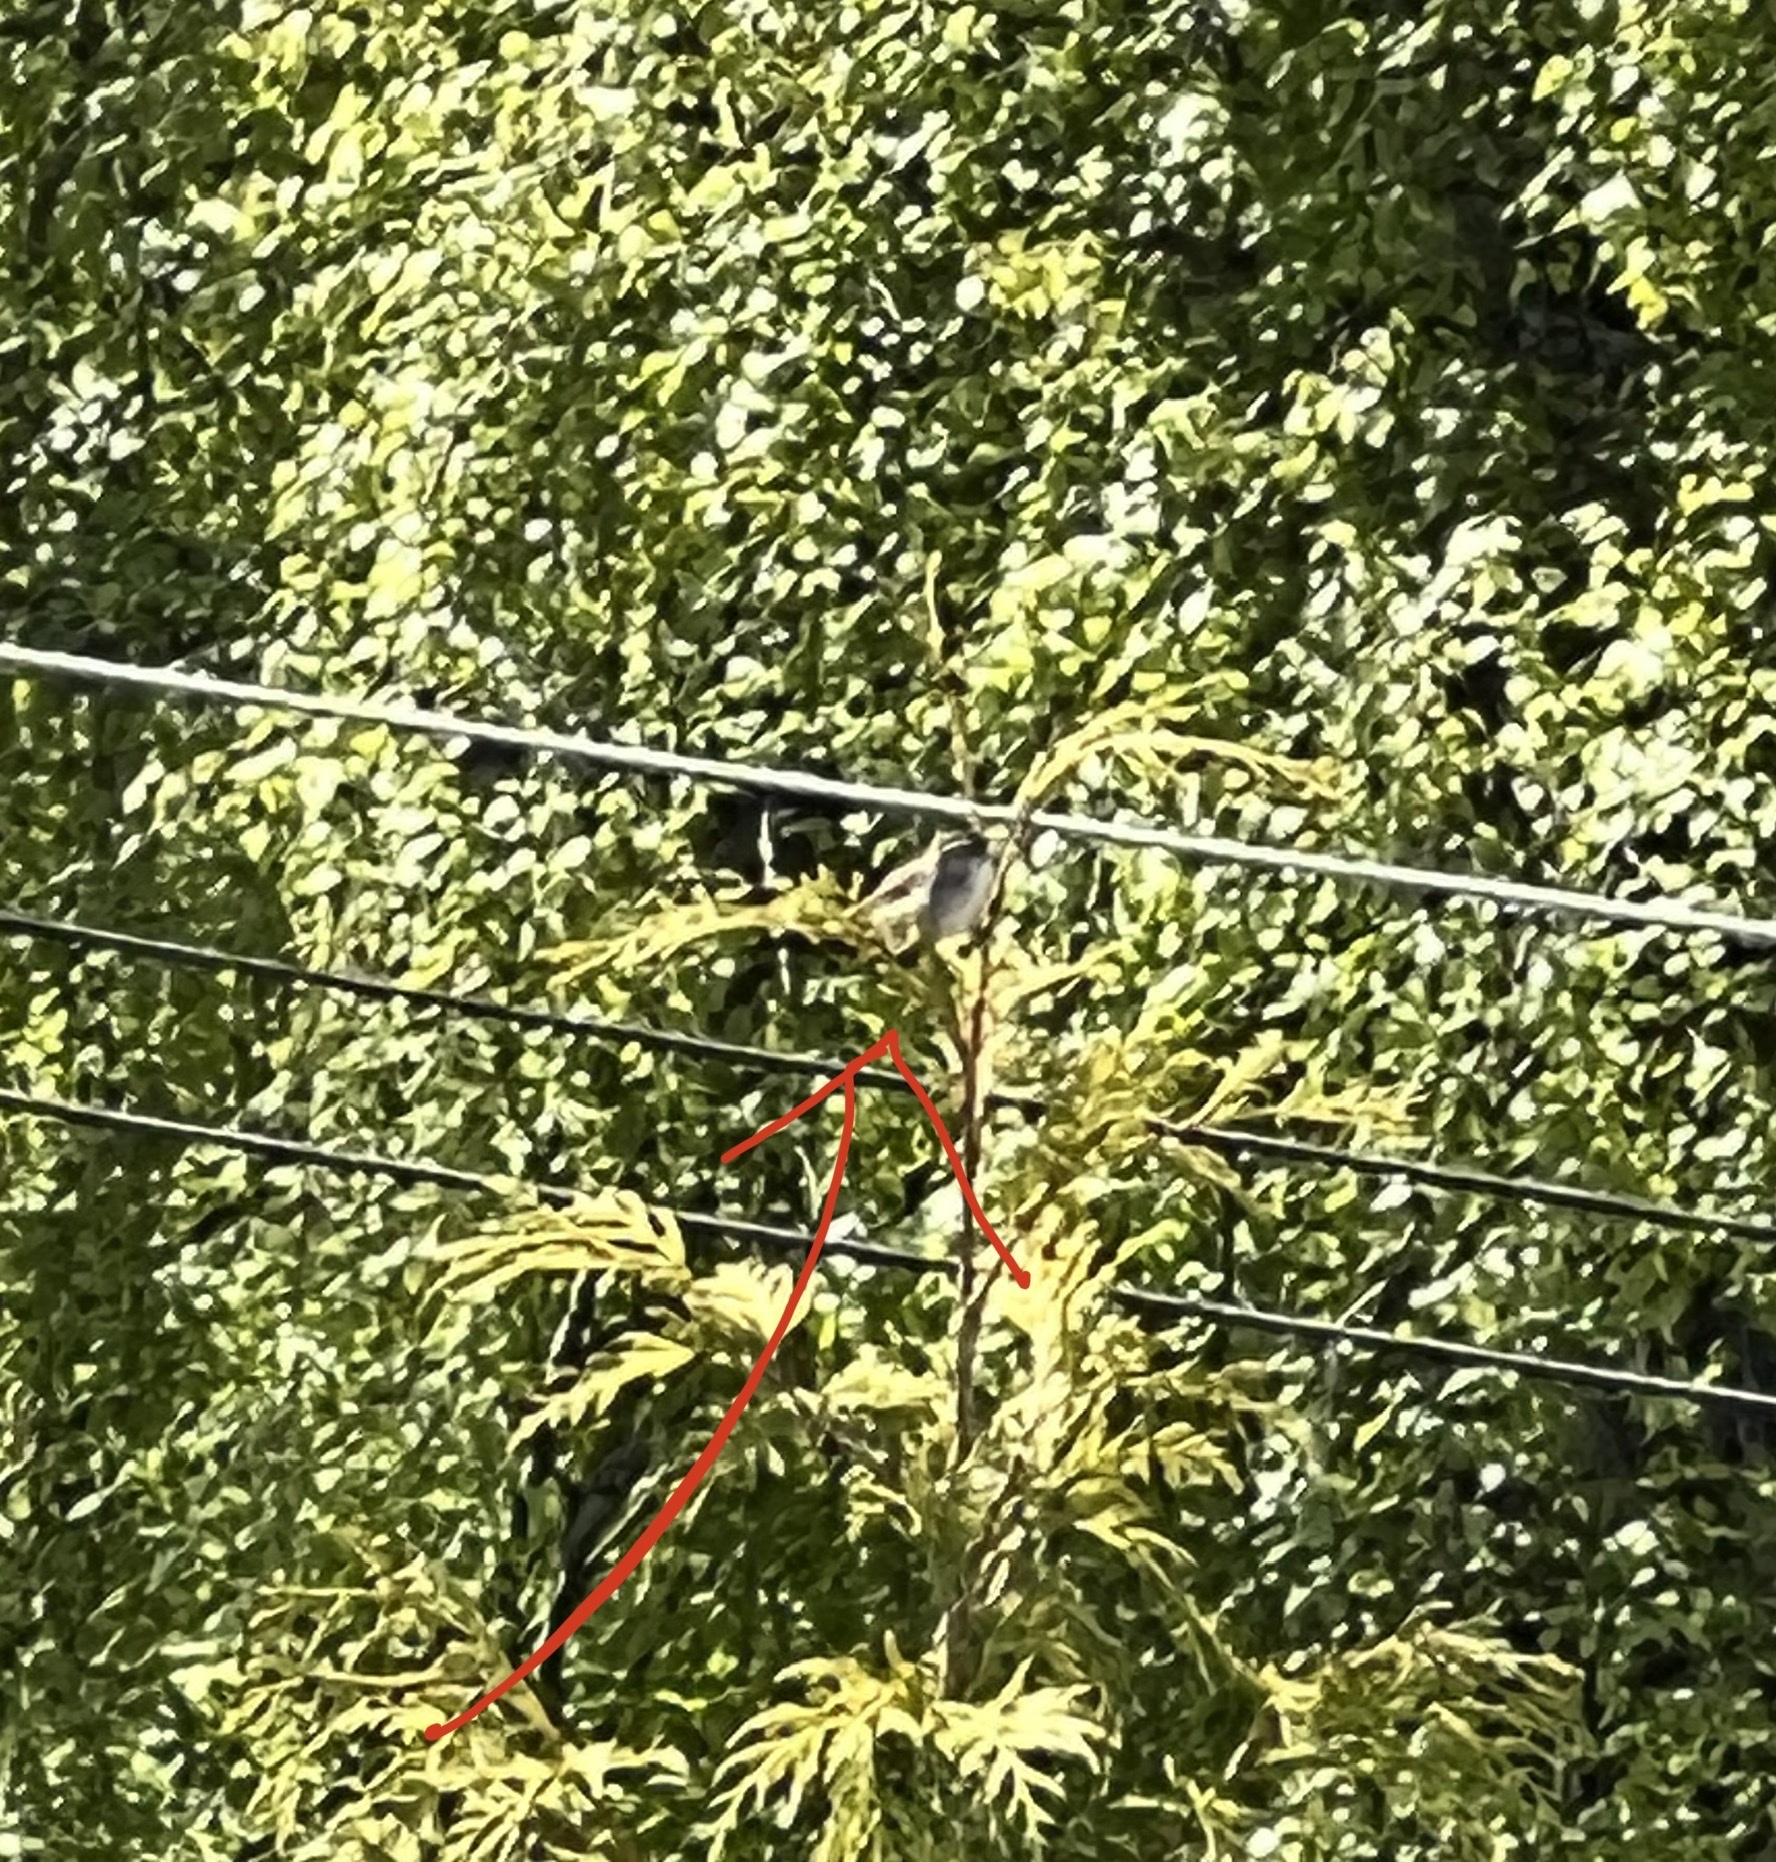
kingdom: Animalia
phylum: Chordata
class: Aves
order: Passeriformes
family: Troglodytidae
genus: Thryomanes
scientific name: Thryomanes bewickii
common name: Bewick's wren
